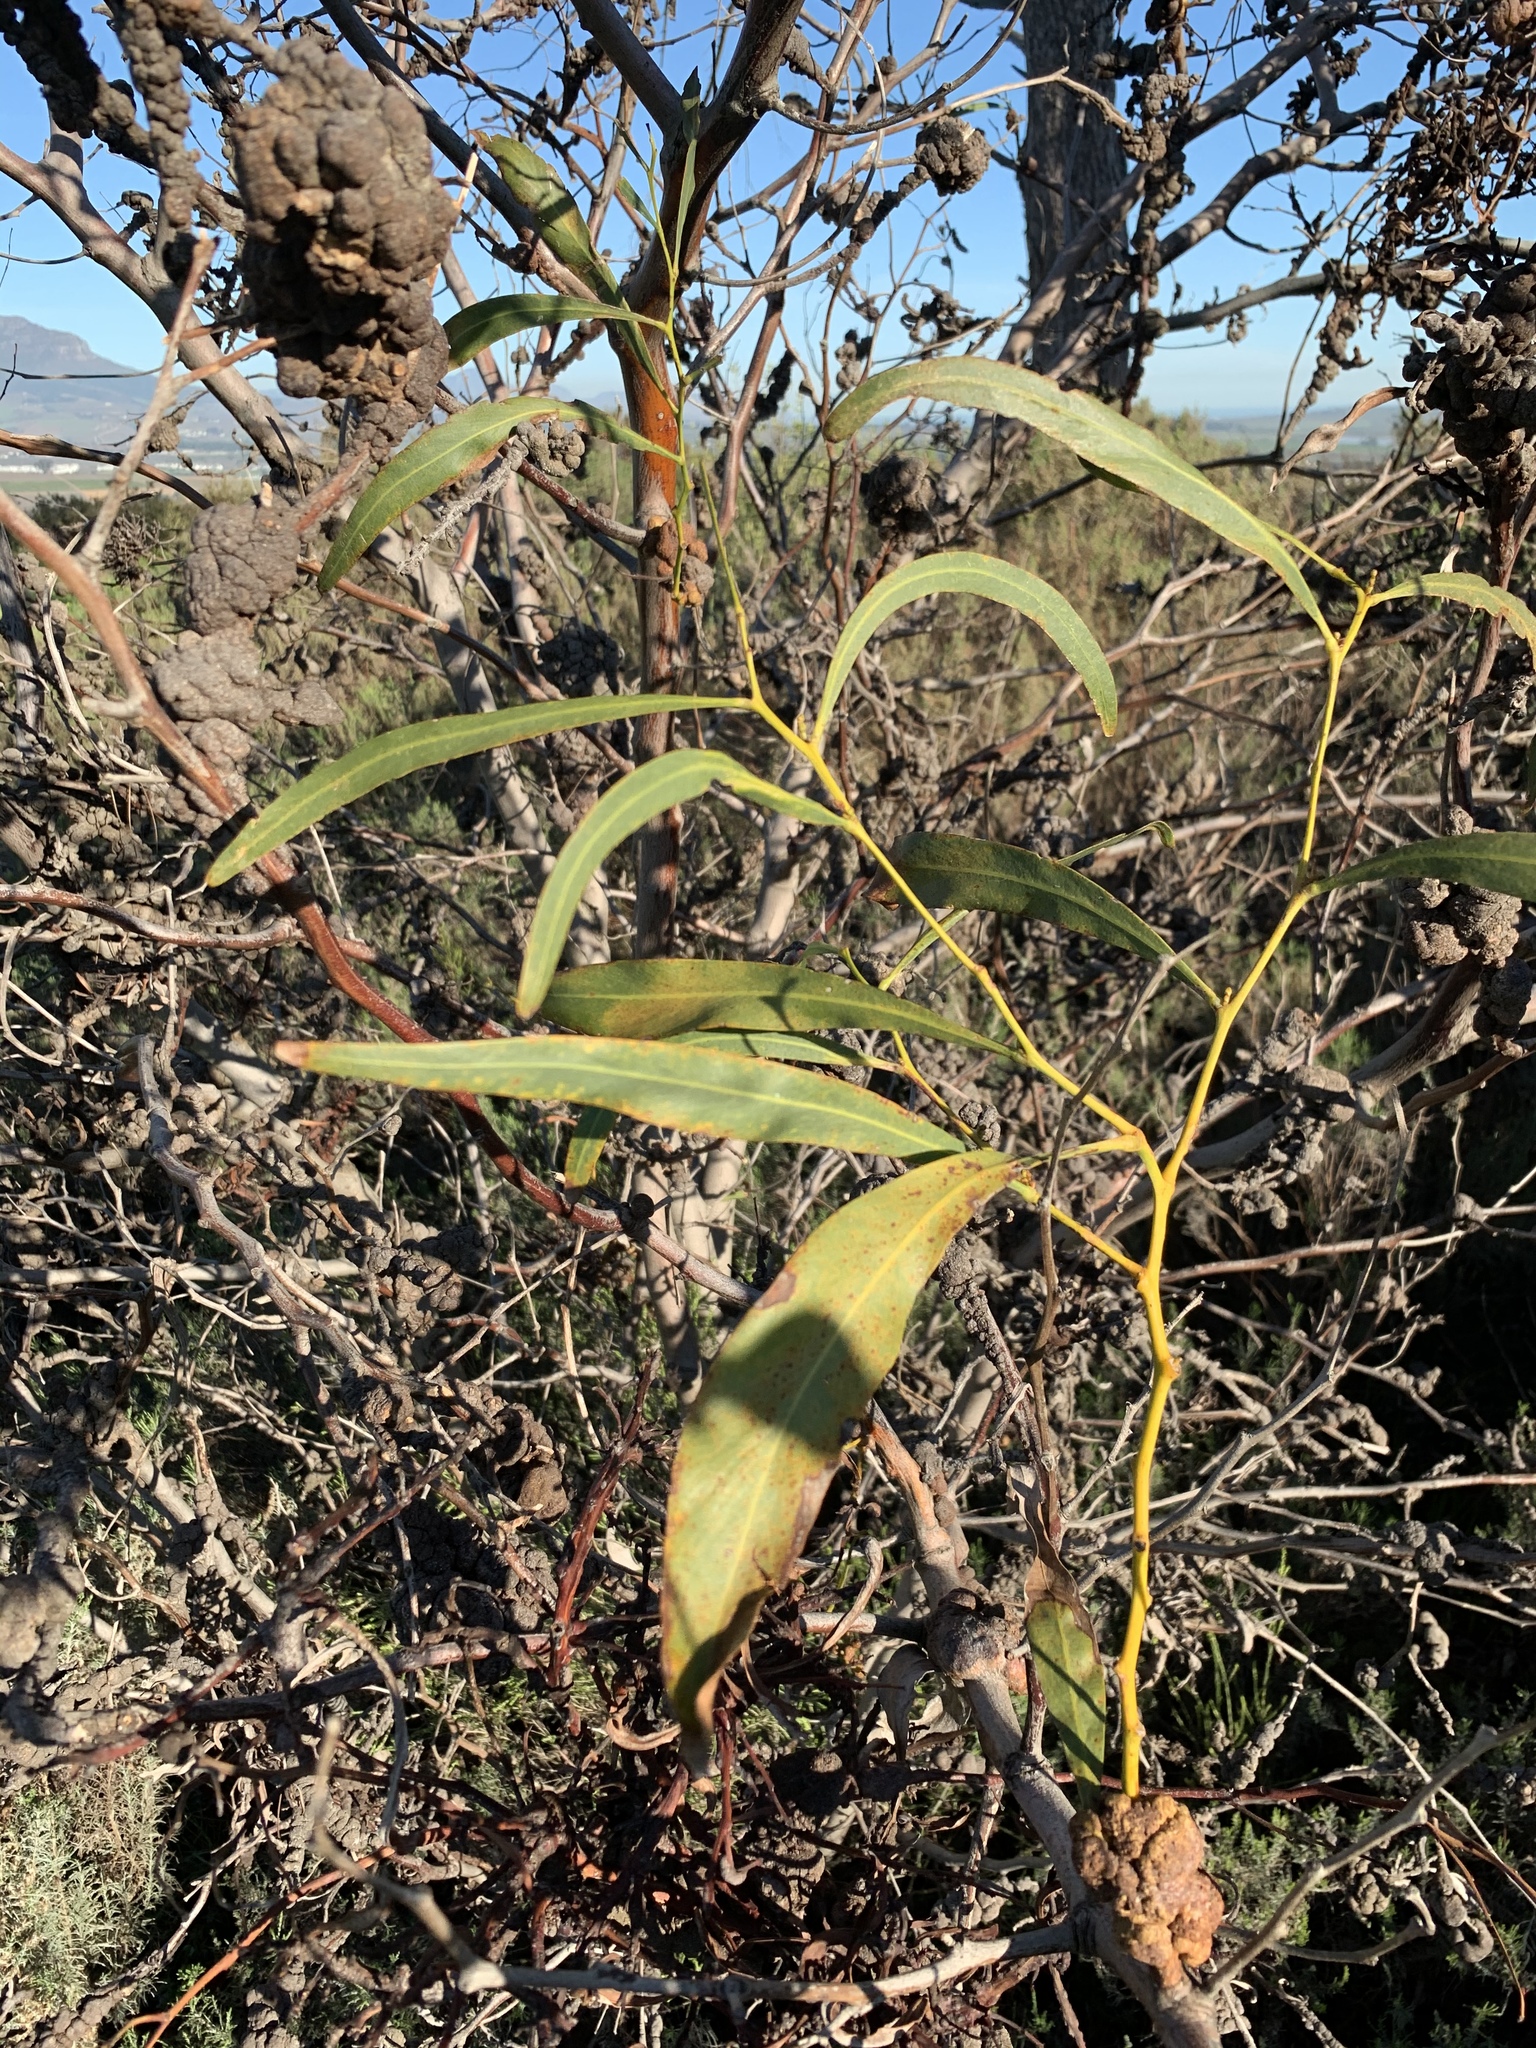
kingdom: Plantae
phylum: Tracheophyta
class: Magnoliopsida
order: Fabales
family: Fabaceae
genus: Acacia
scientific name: Acacia saligna
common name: Orange wattle
